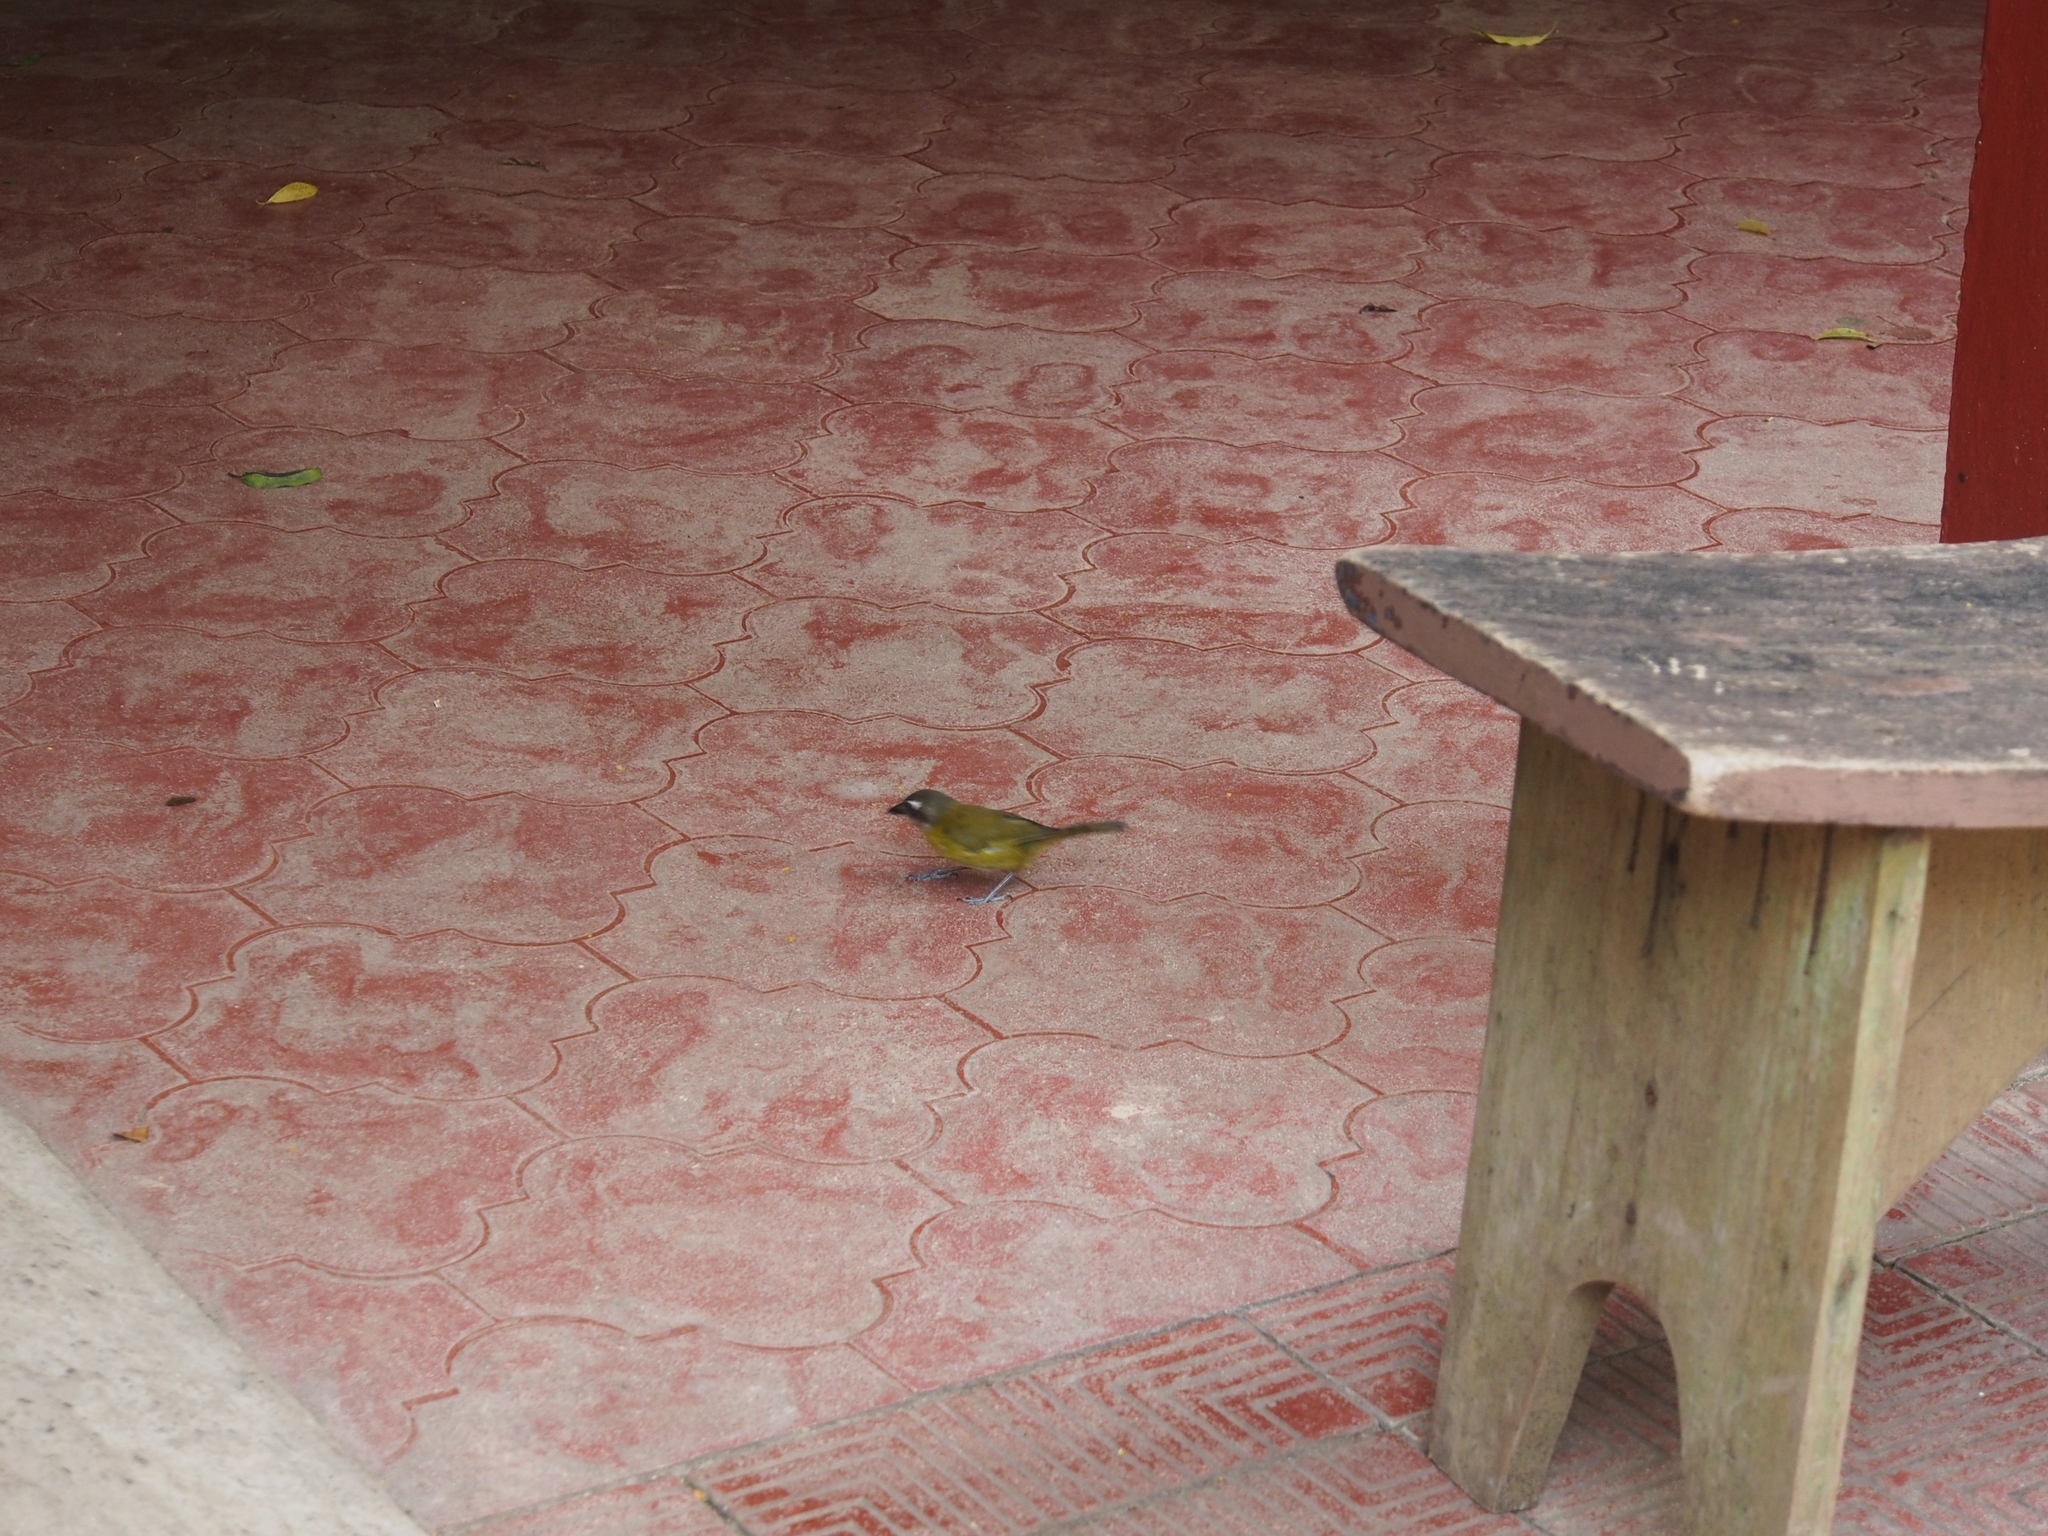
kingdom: Animalia
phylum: Chordata
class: Aves
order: Passeriformes
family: Passerellidae
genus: Chlorospingus
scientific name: Chlorospingus flavopectus
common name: Common chlorospingus
